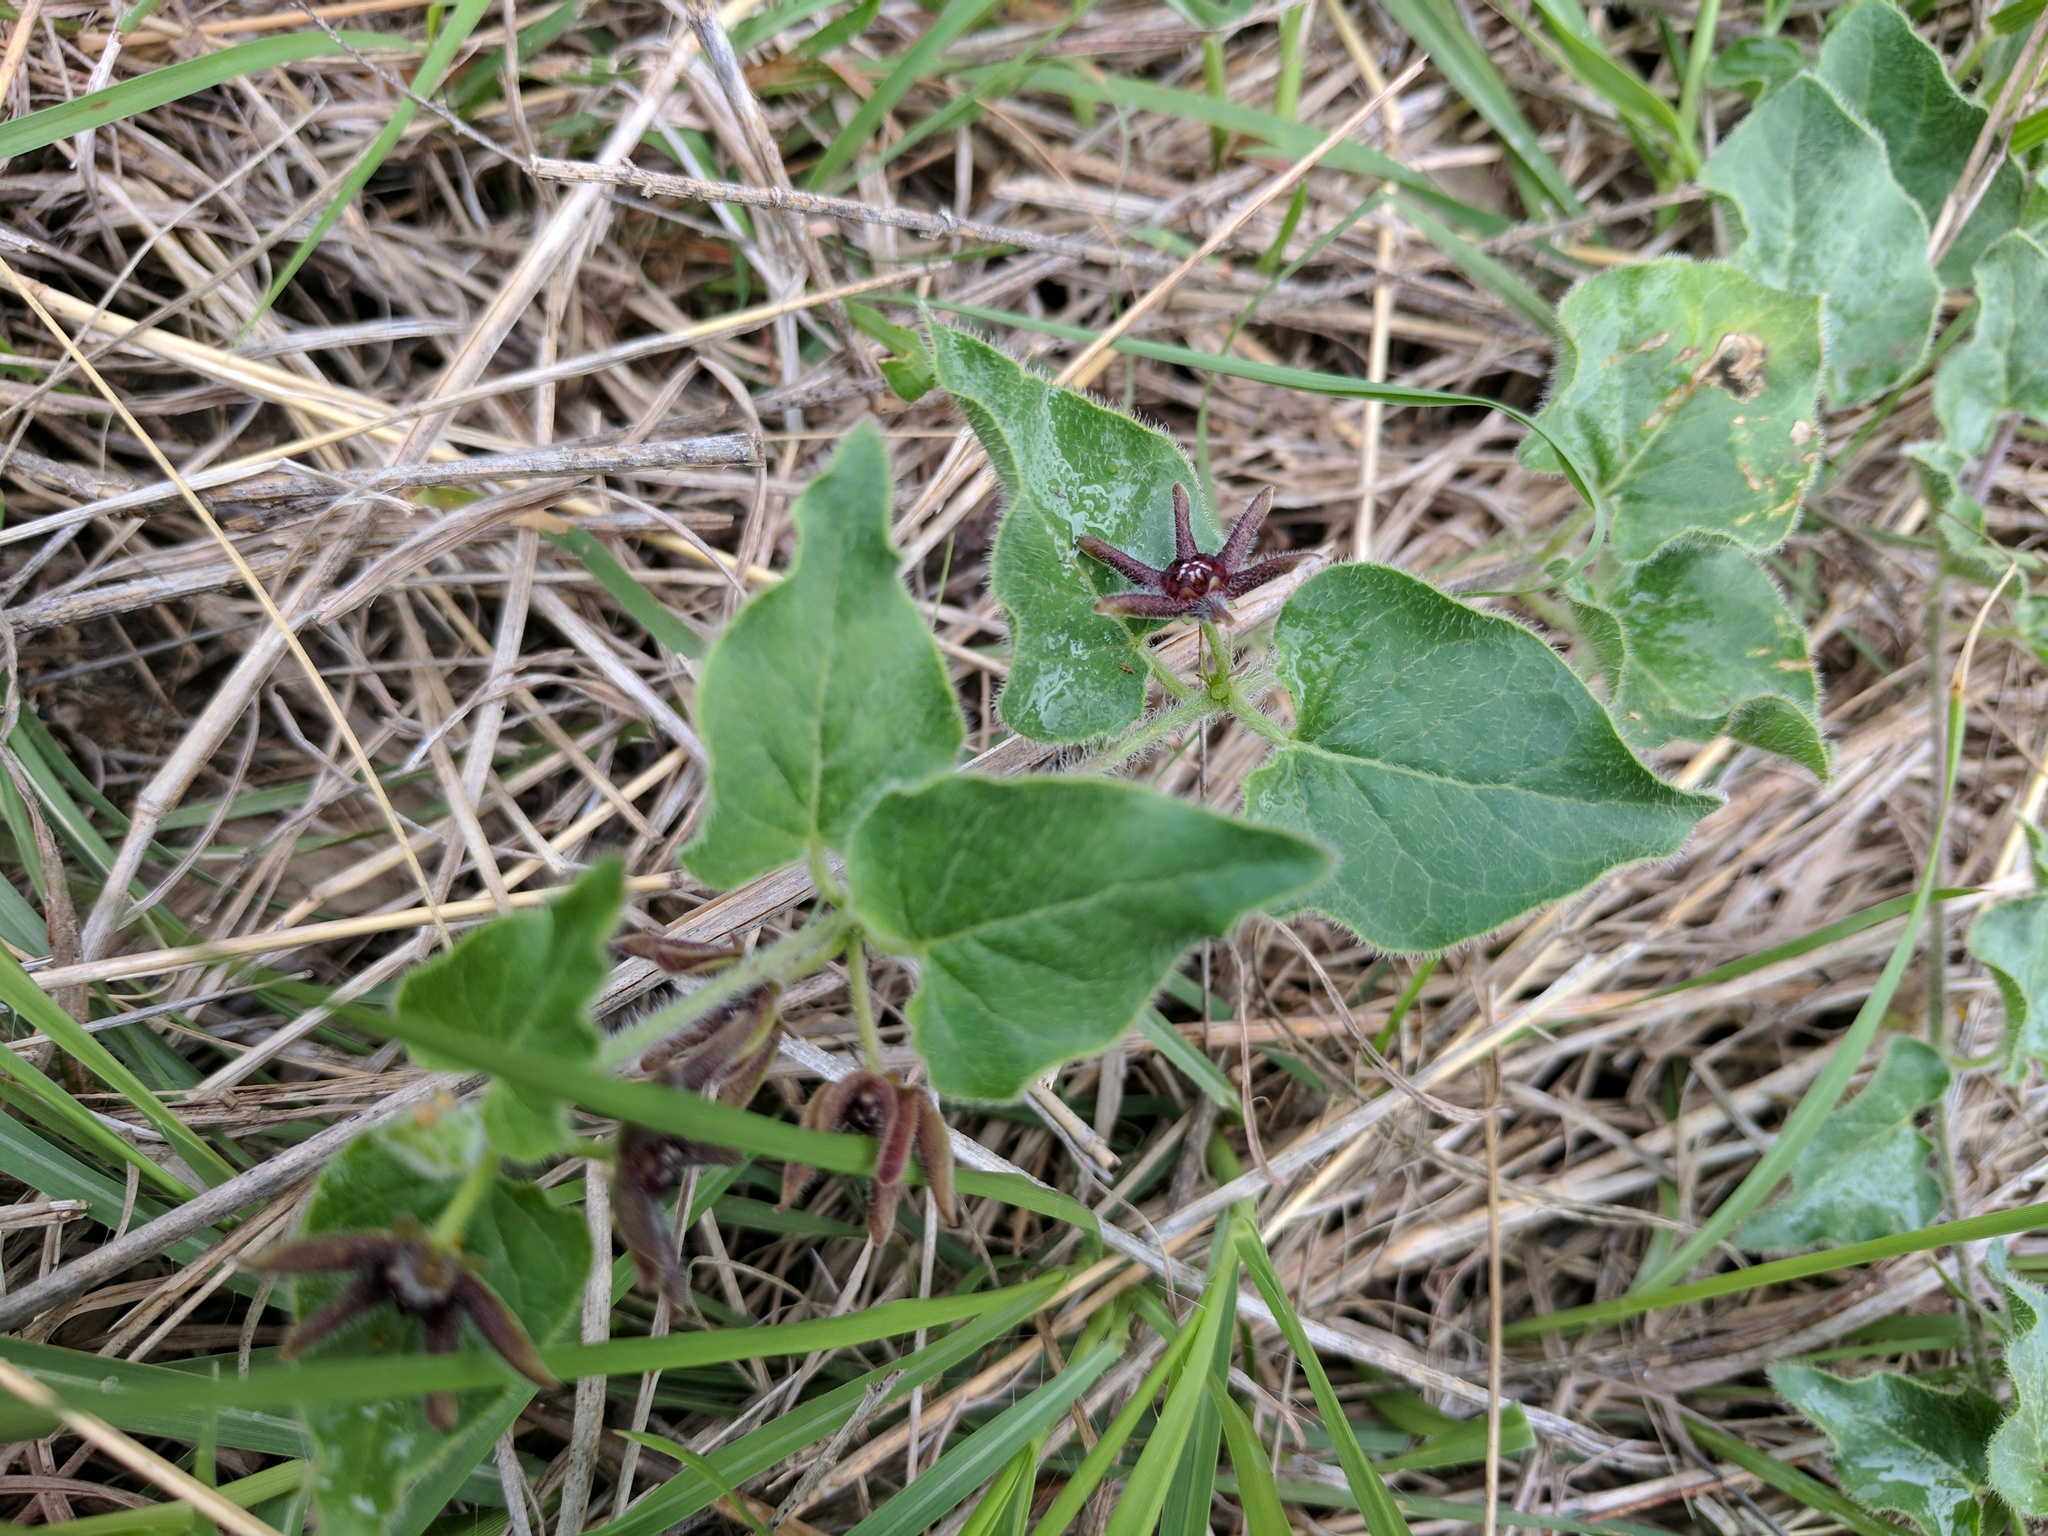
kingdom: Plantae
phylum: Tracheophyta
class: Magnoliopsida
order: Gentianales
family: Apocynaceae
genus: Chthamalia
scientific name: Chthamalia biflora
